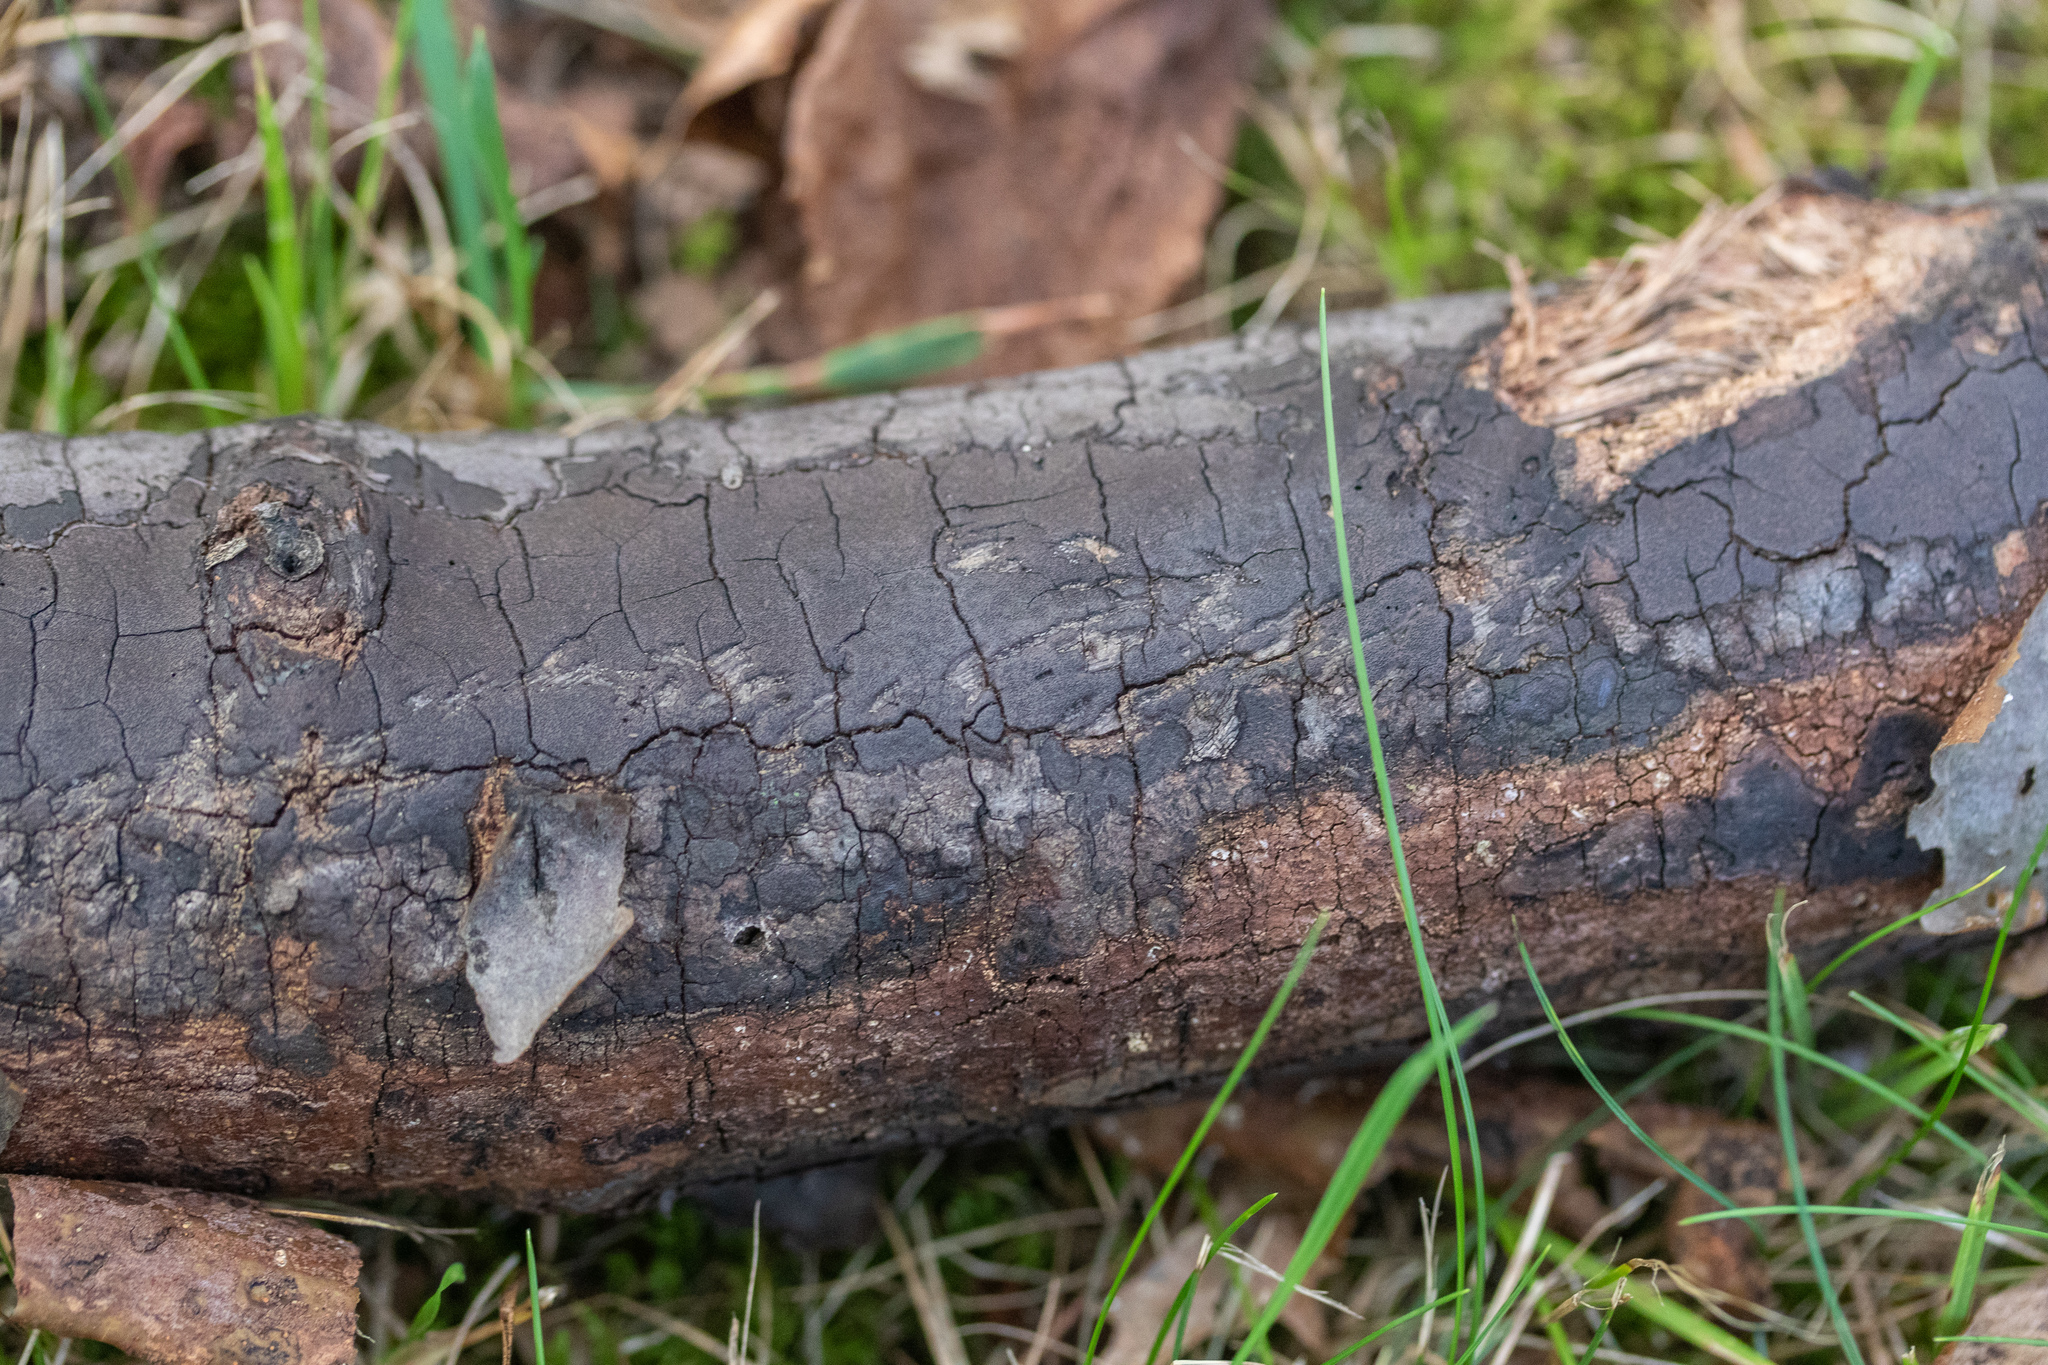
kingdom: Fungi
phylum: Ascomycota
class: Sordariomycetes
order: Xylariales
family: Diatrypaceae
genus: Diatrype
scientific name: Diatrype stigma
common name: Common tarcrust
